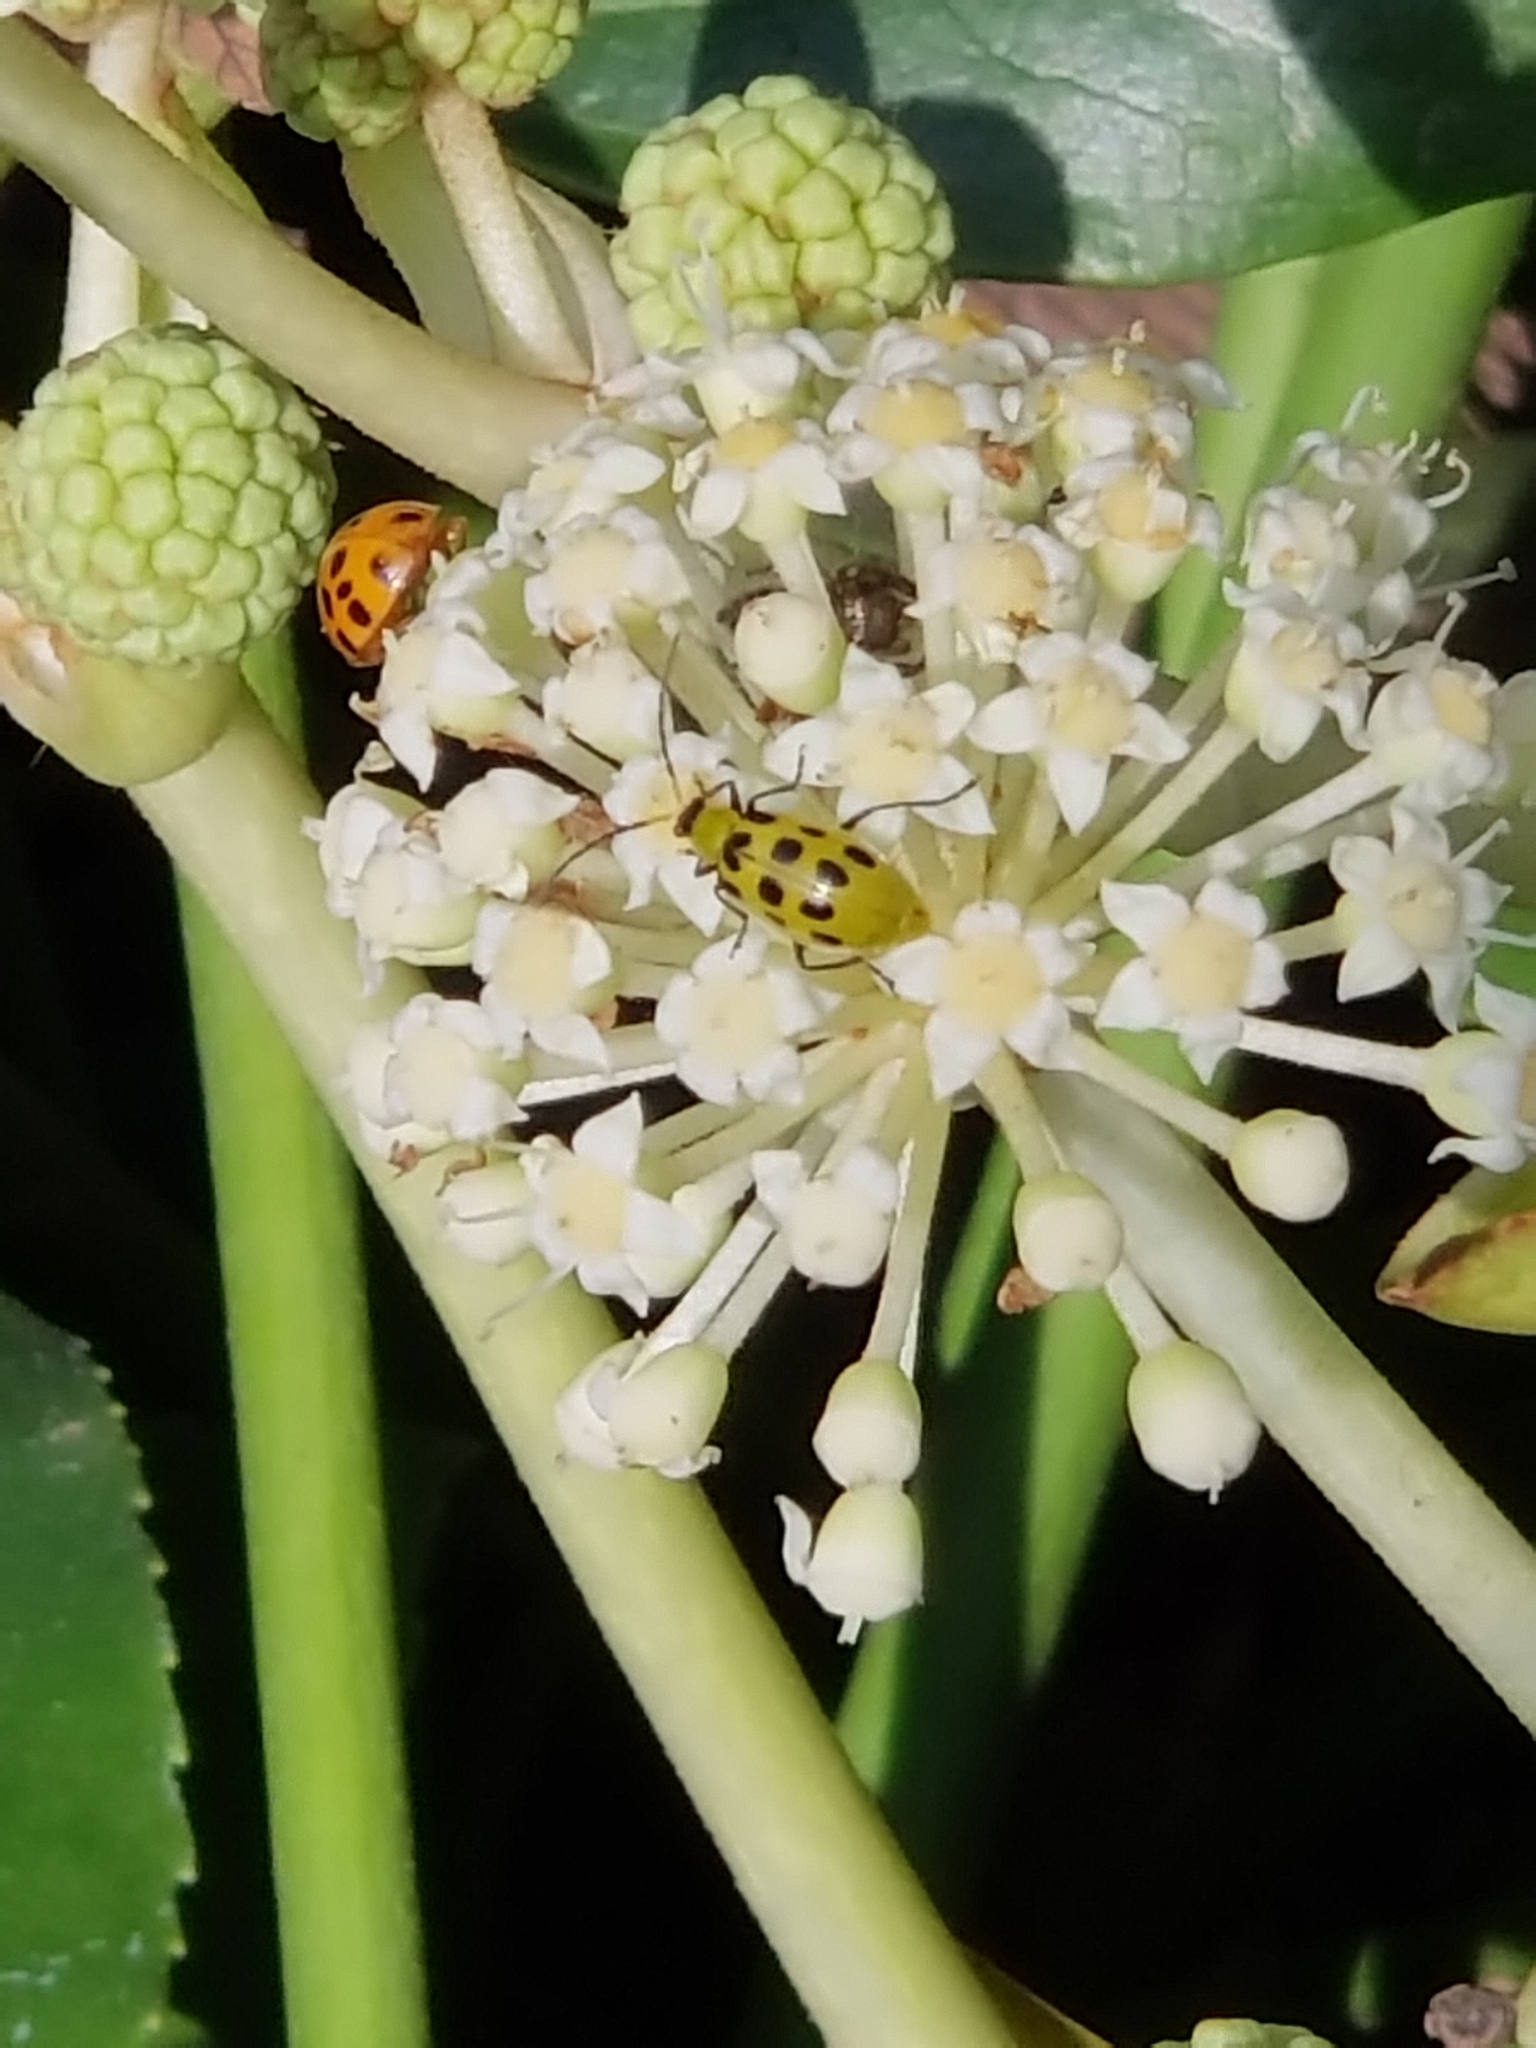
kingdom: Animalia
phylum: Arthropoda
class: Insecta
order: Coleoptera
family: Chrysomelidae
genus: Diabrotica
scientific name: Diabrotica undecimpunctata
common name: Spotted cucumber beetle
